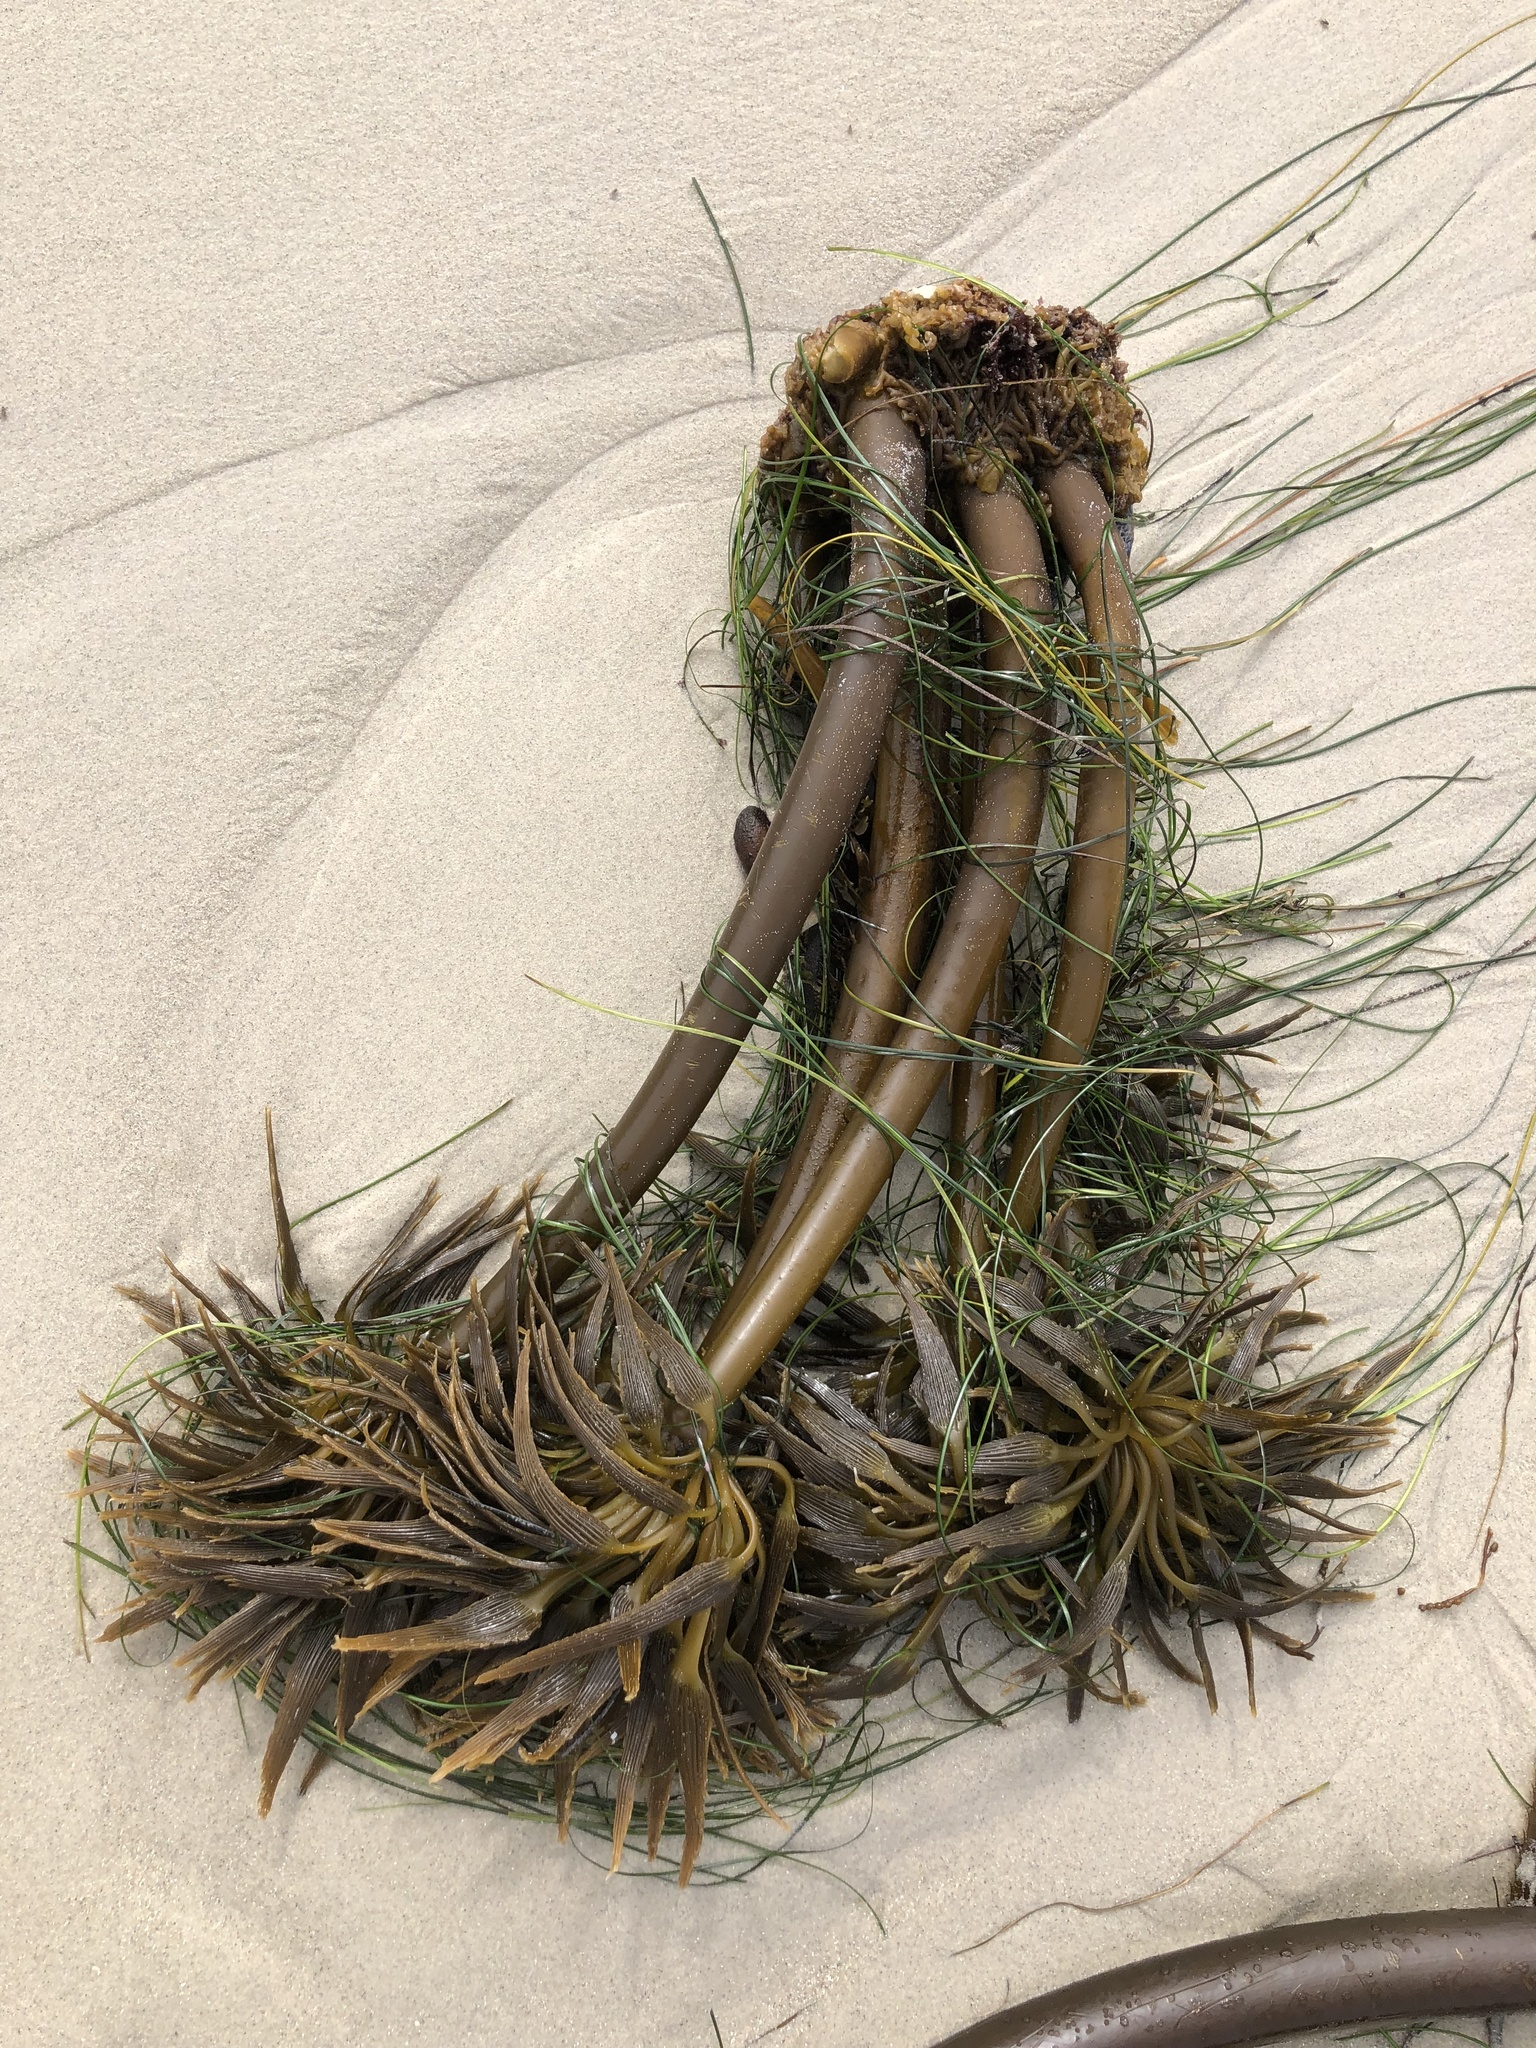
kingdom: Chromista
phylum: Ochrophyta
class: Phaeophyceae
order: Laminariales
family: Laminariaceae
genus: Postelsia
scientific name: Postelsia palmiformis
